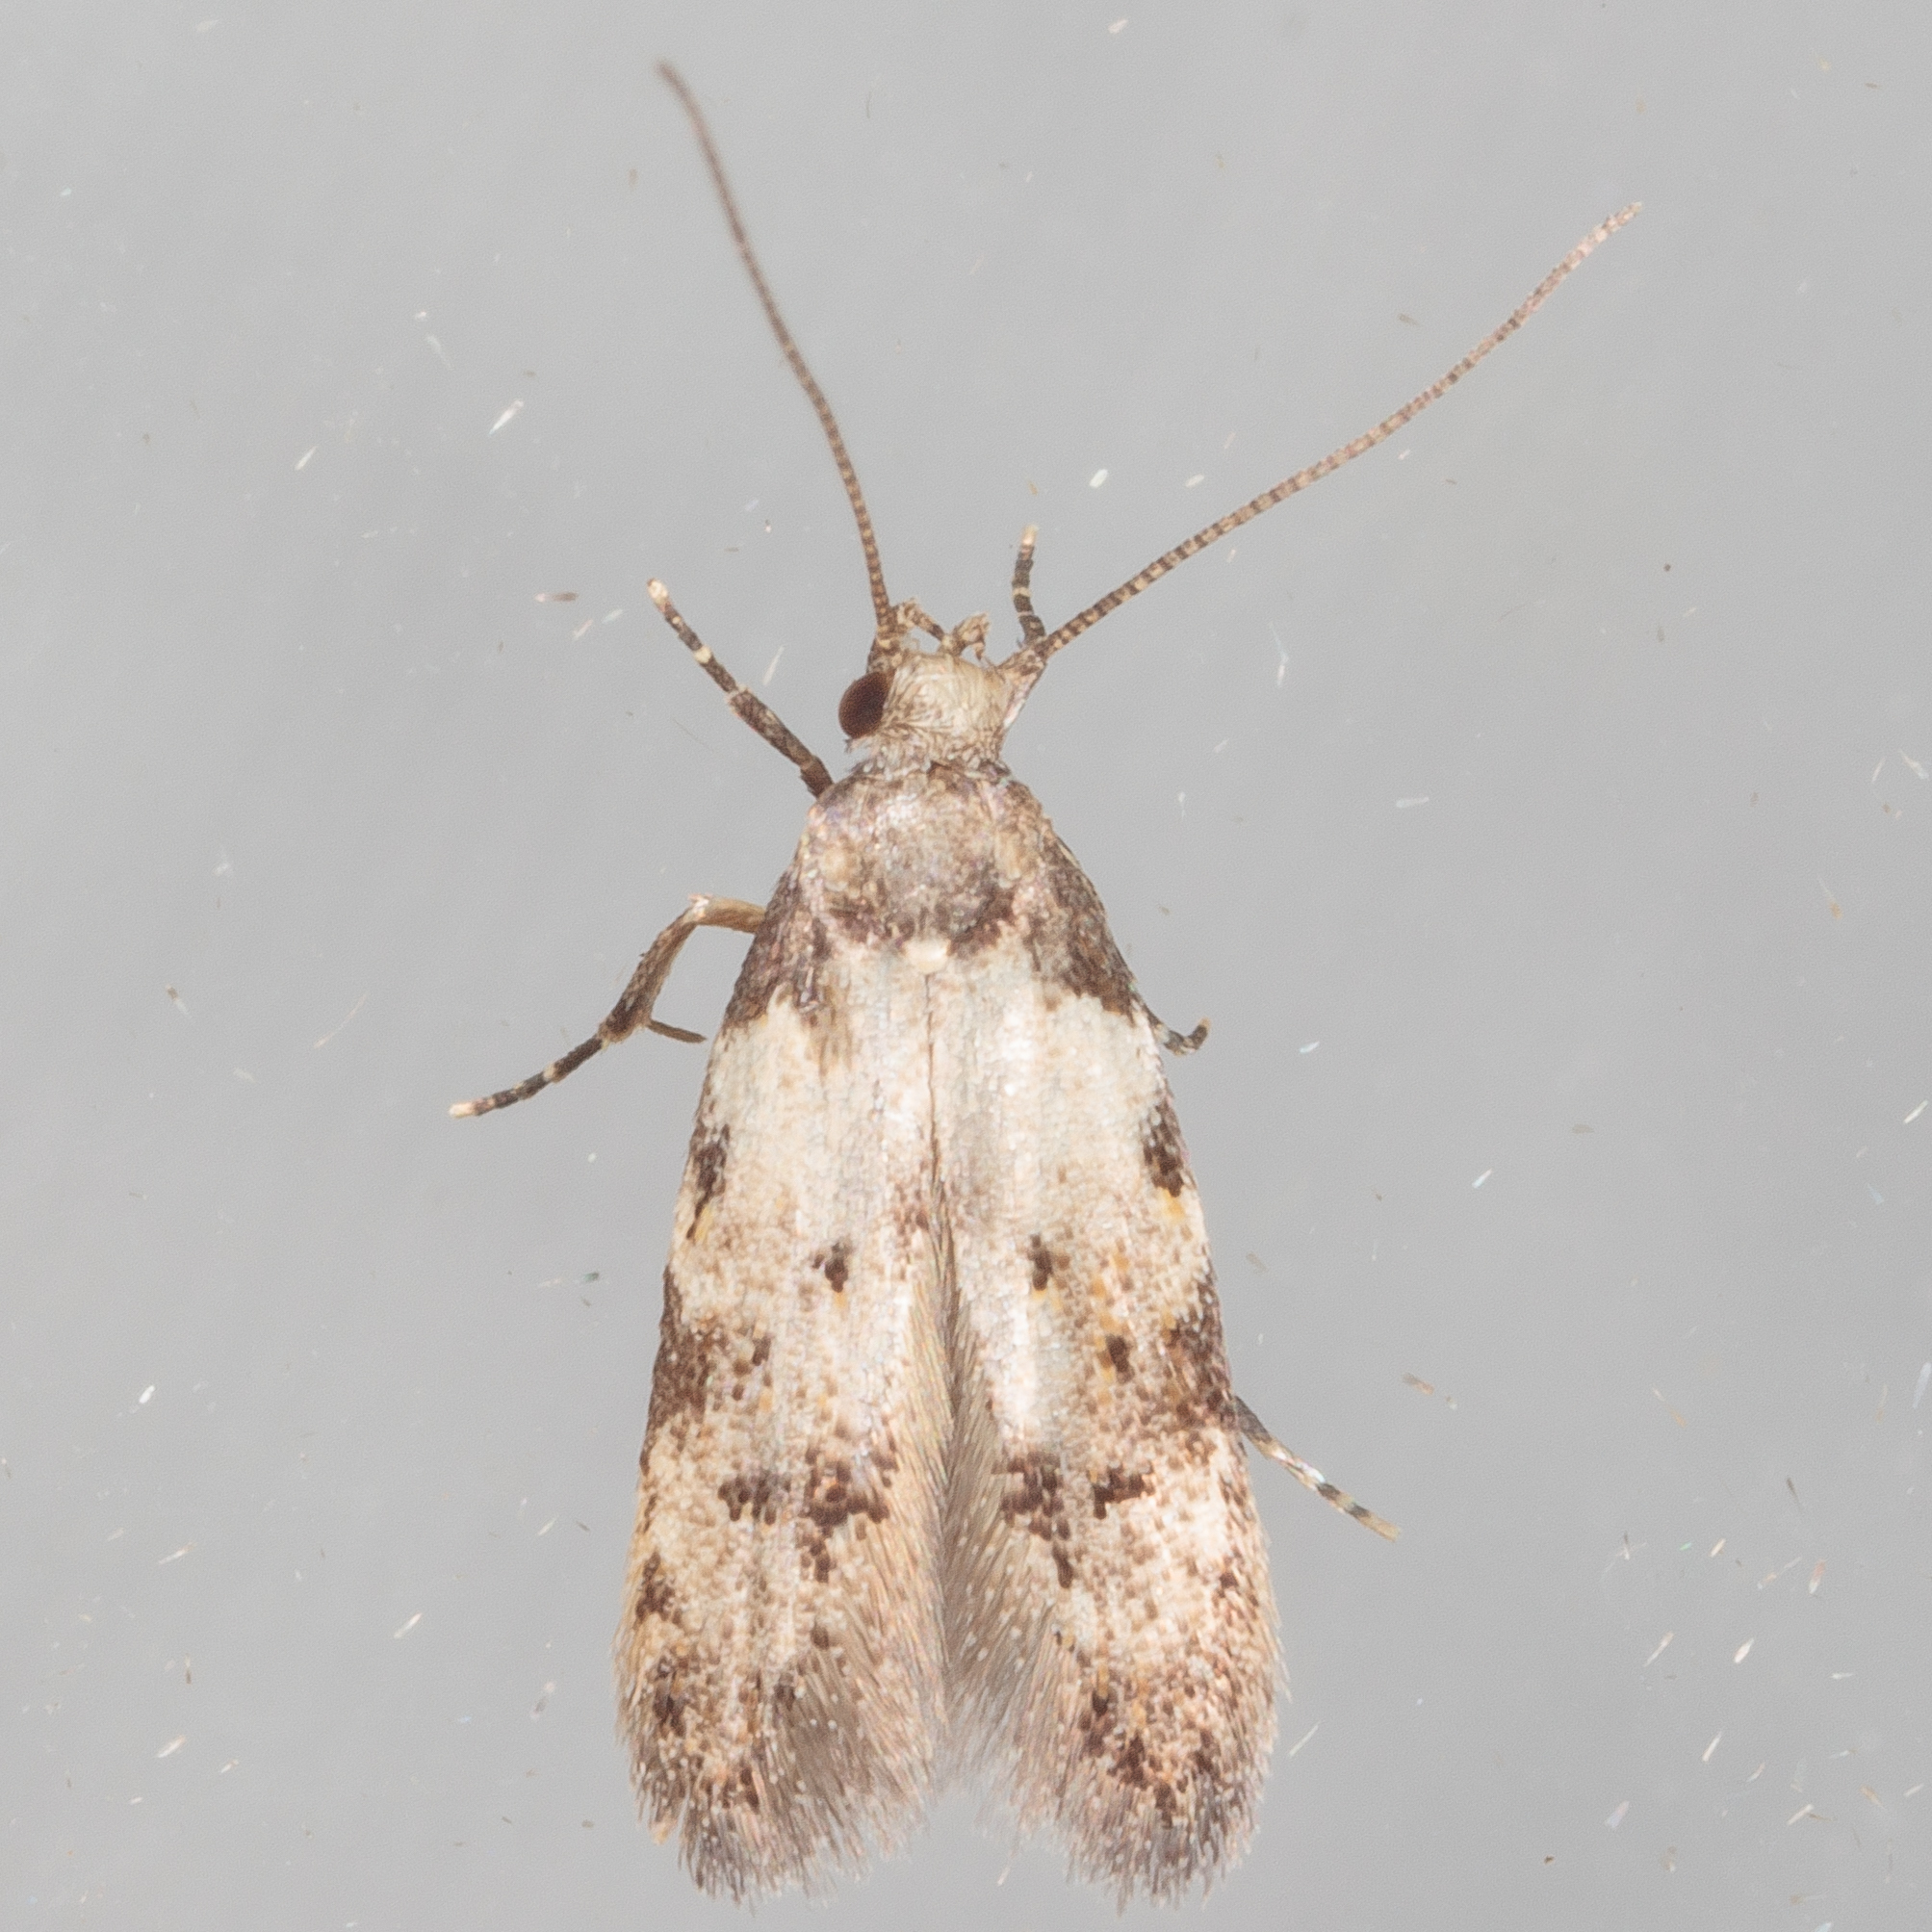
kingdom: Animalia
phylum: Arthropoda
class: Insecta
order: Lepidoptera
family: Autostichidae
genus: Taygete
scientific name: Taygete attributella
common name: Triangle-marked twirler moth
